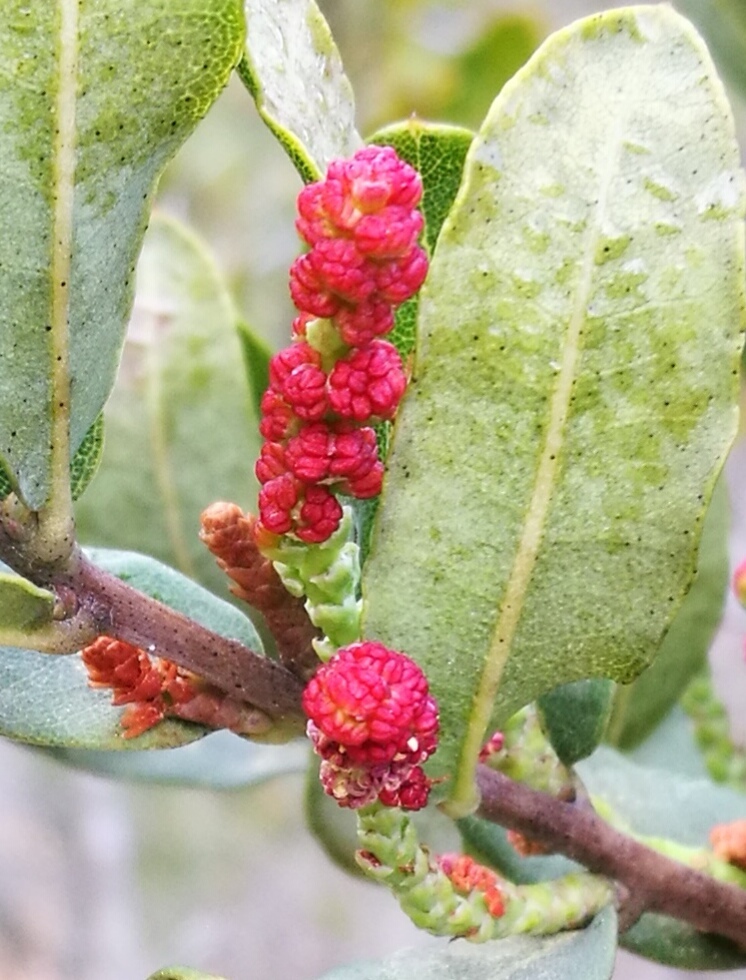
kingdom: Plantae
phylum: Tracheophyta
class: Magnoliopsida
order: Fagales
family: Myricaceae
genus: Morella
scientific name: Morella humilis
